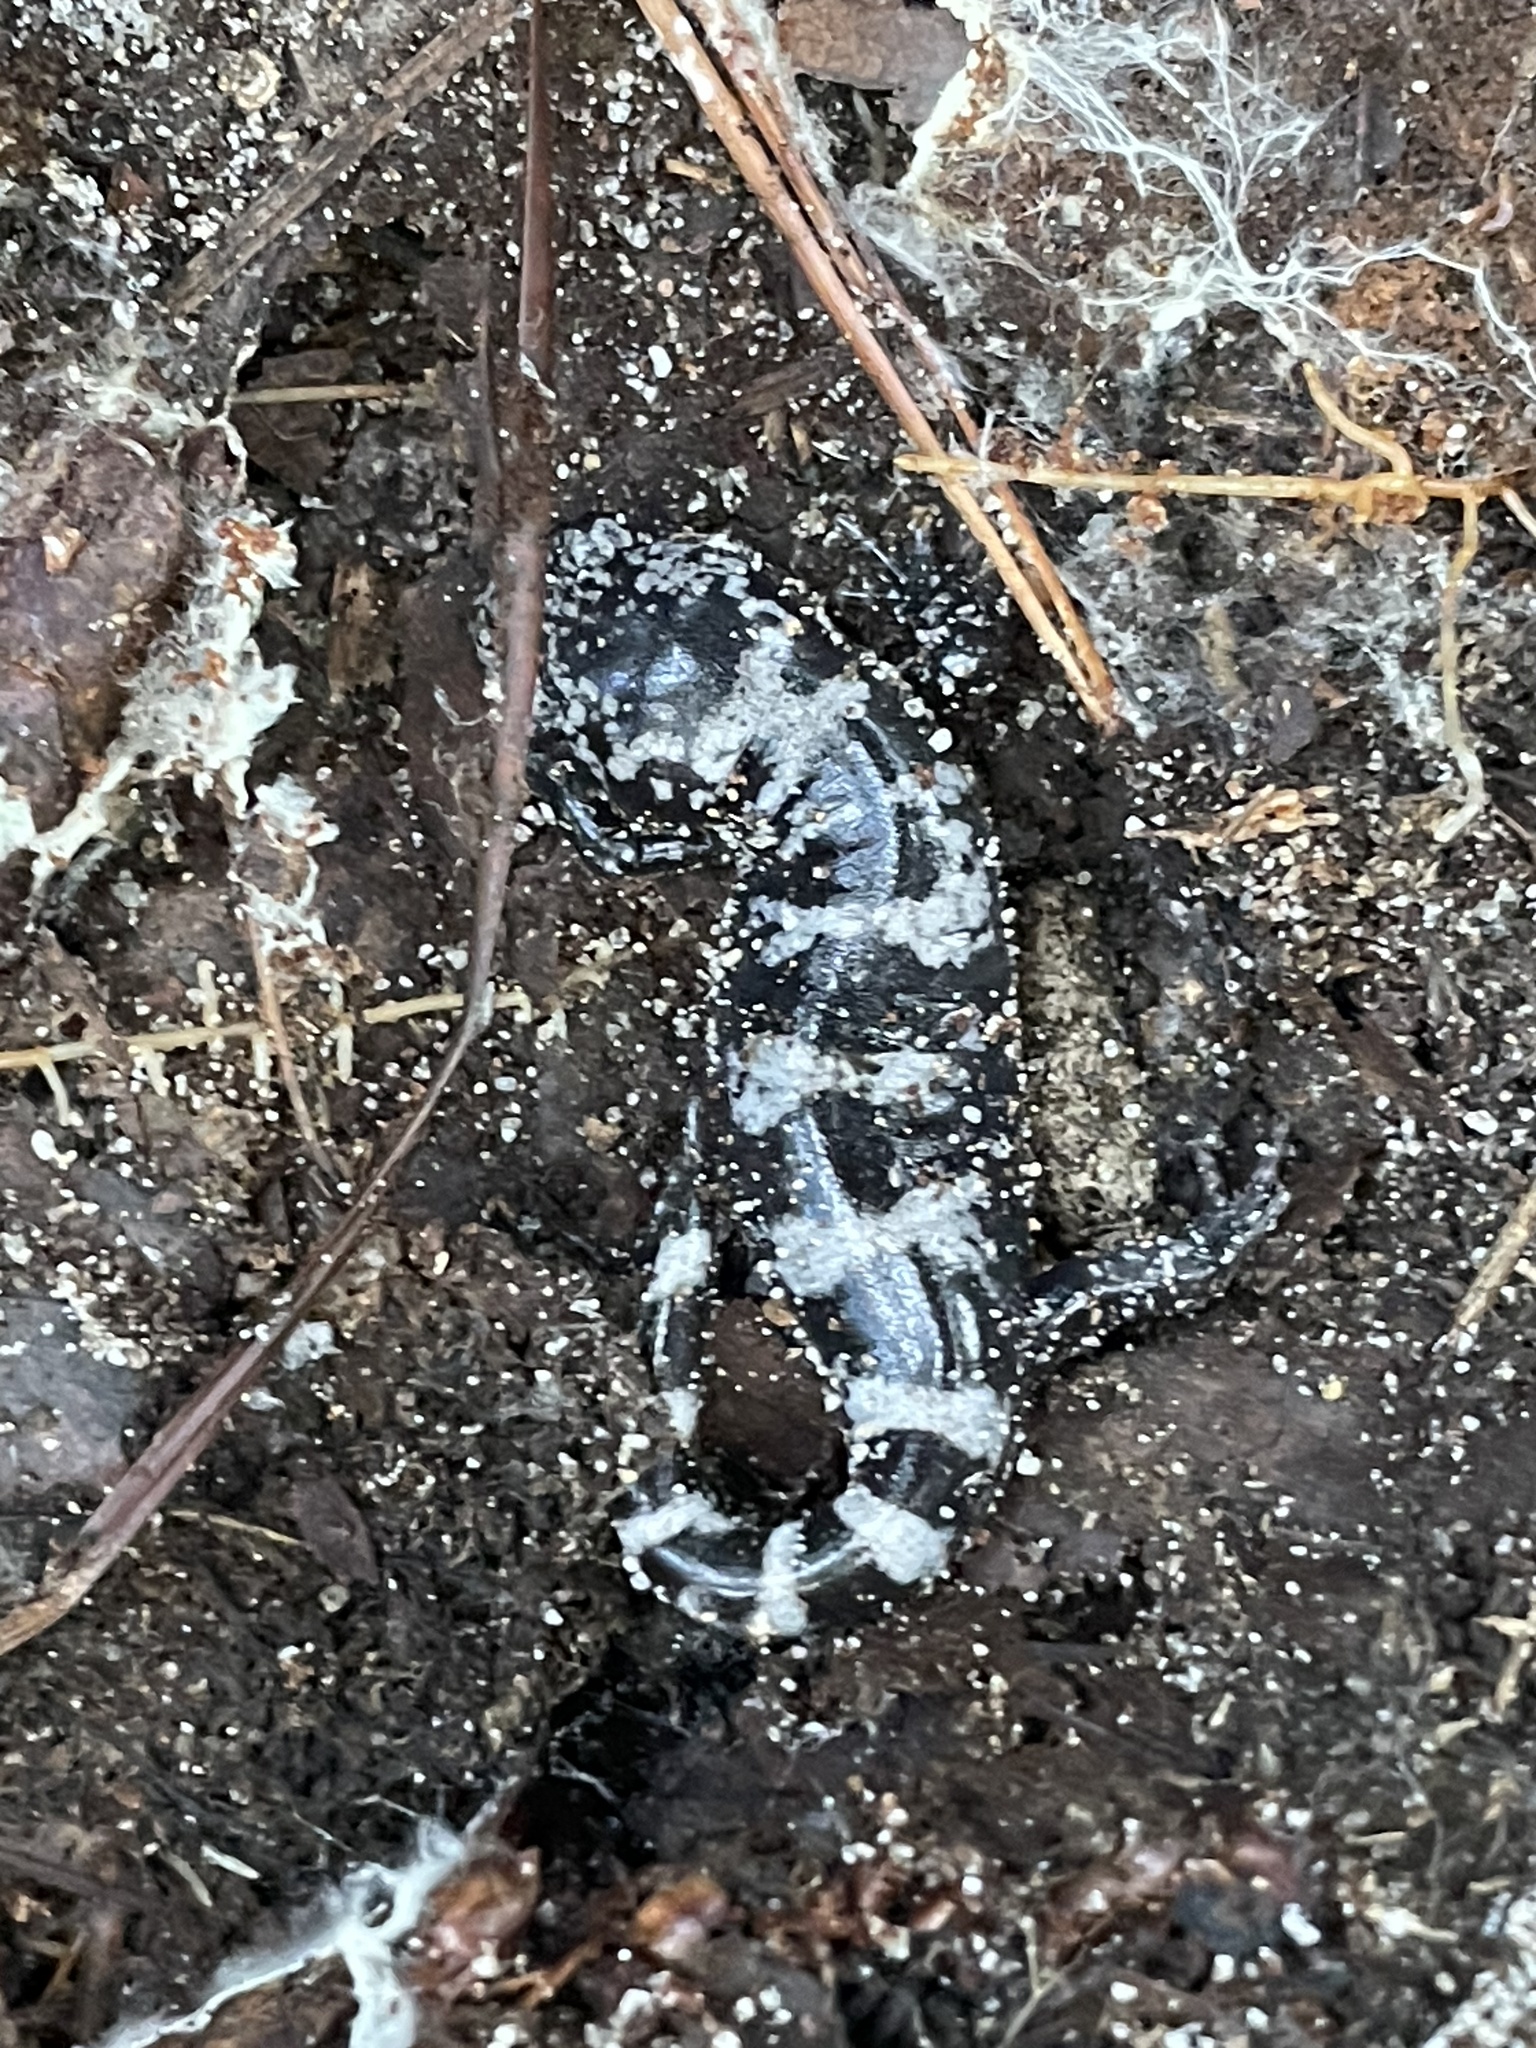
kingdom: Animalia
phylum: Chordata
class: Amphibia
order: Caudata
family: Ambystomatidae
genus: Ambystoma
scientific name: Ambystoma opacum
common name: Marbled salamander
